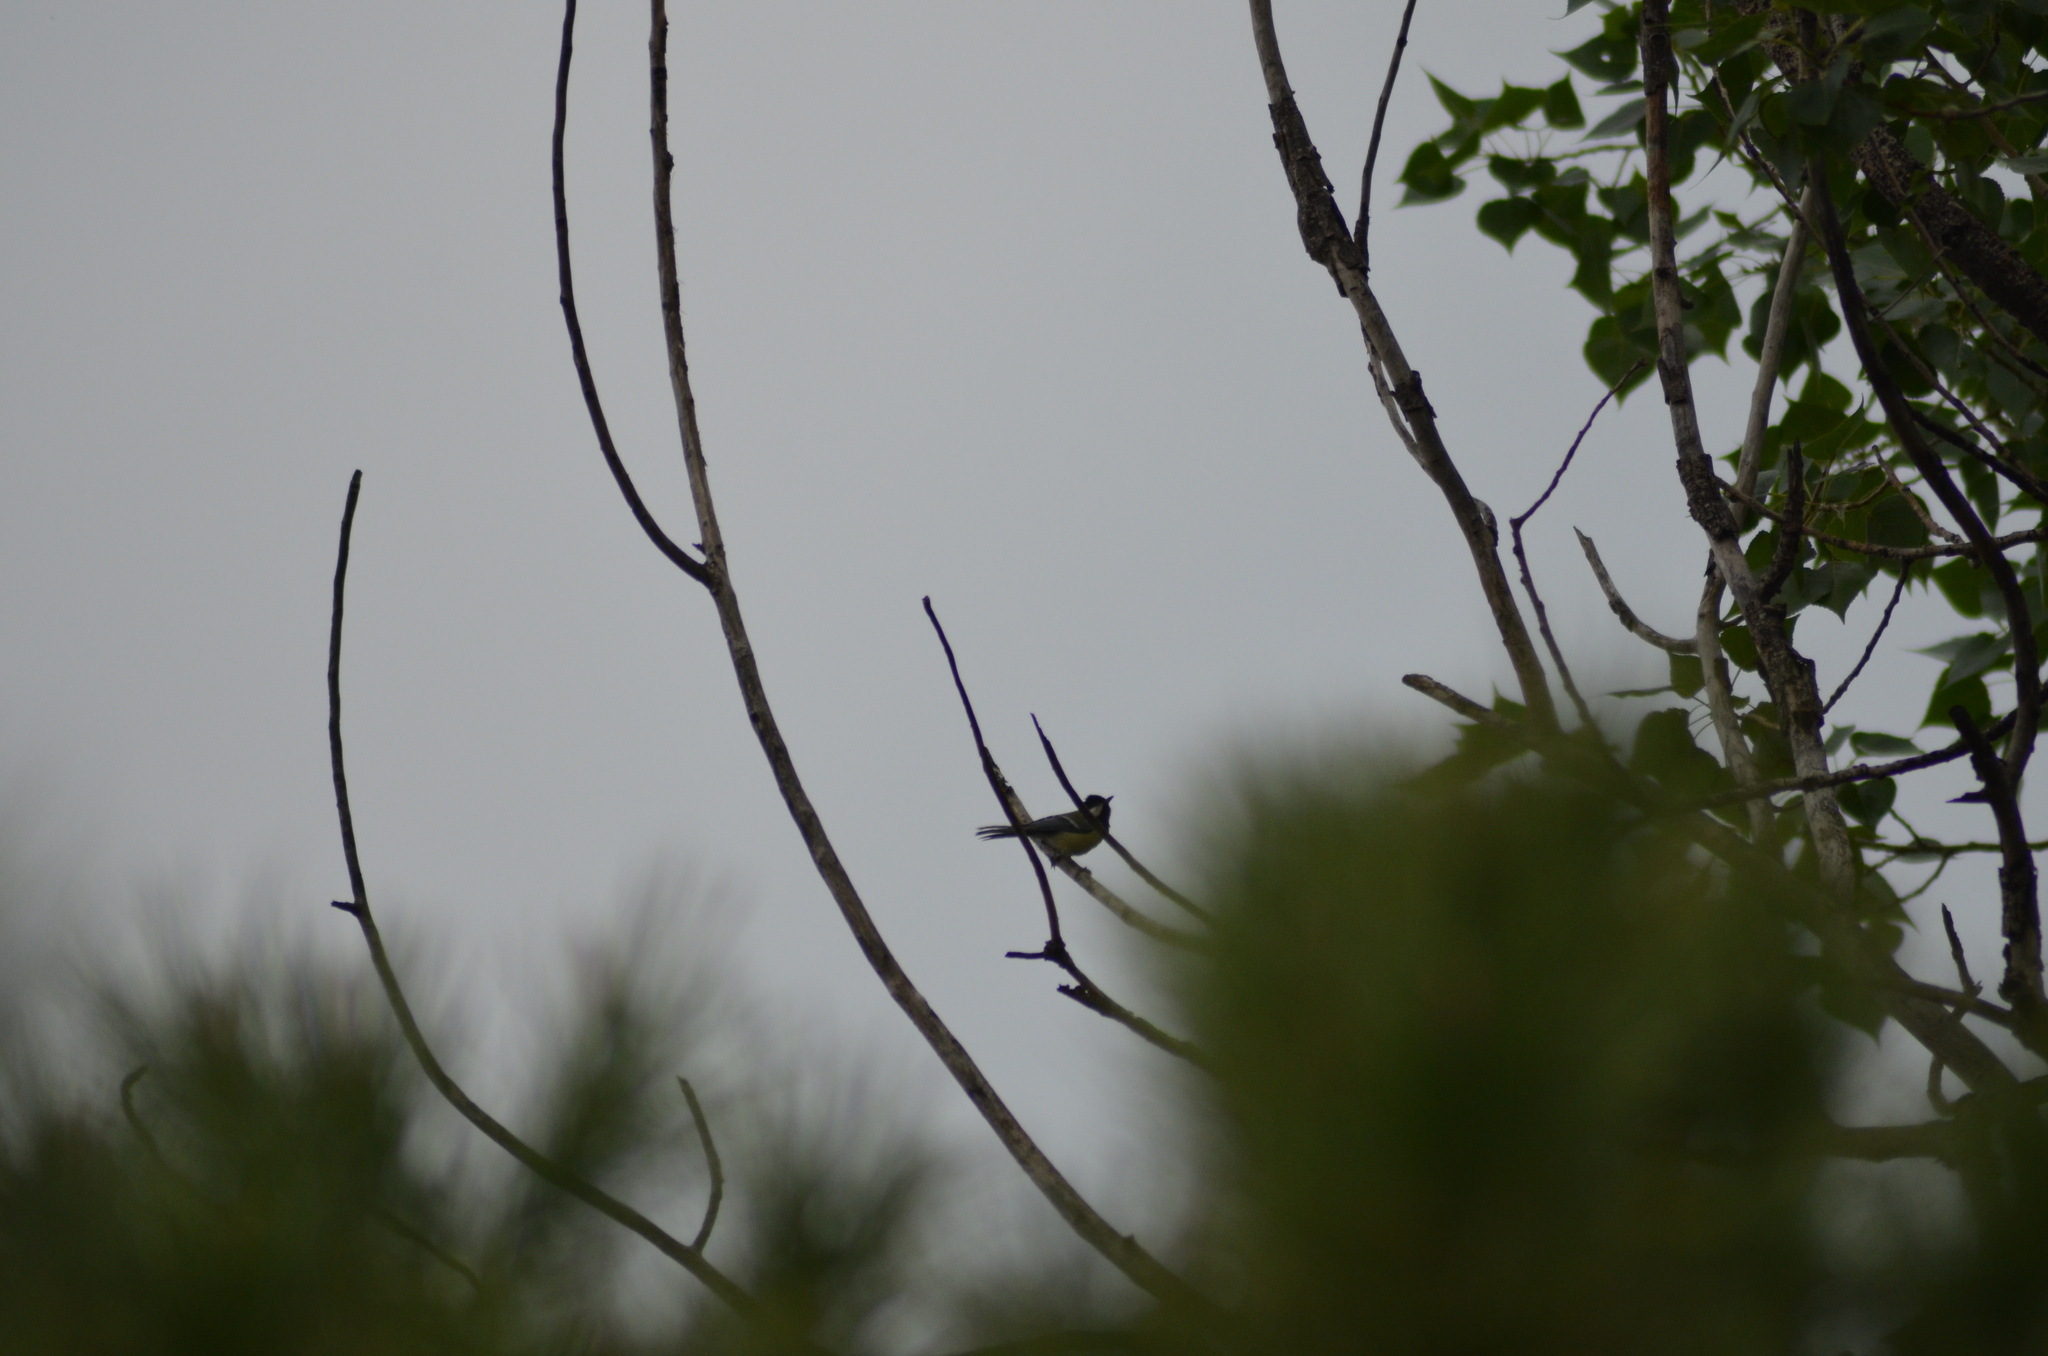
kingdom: Animalia
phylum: Chordata
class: Aves
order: Passeriformes
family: Paridae
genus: Parus
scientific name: Parus major
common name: Great tit
